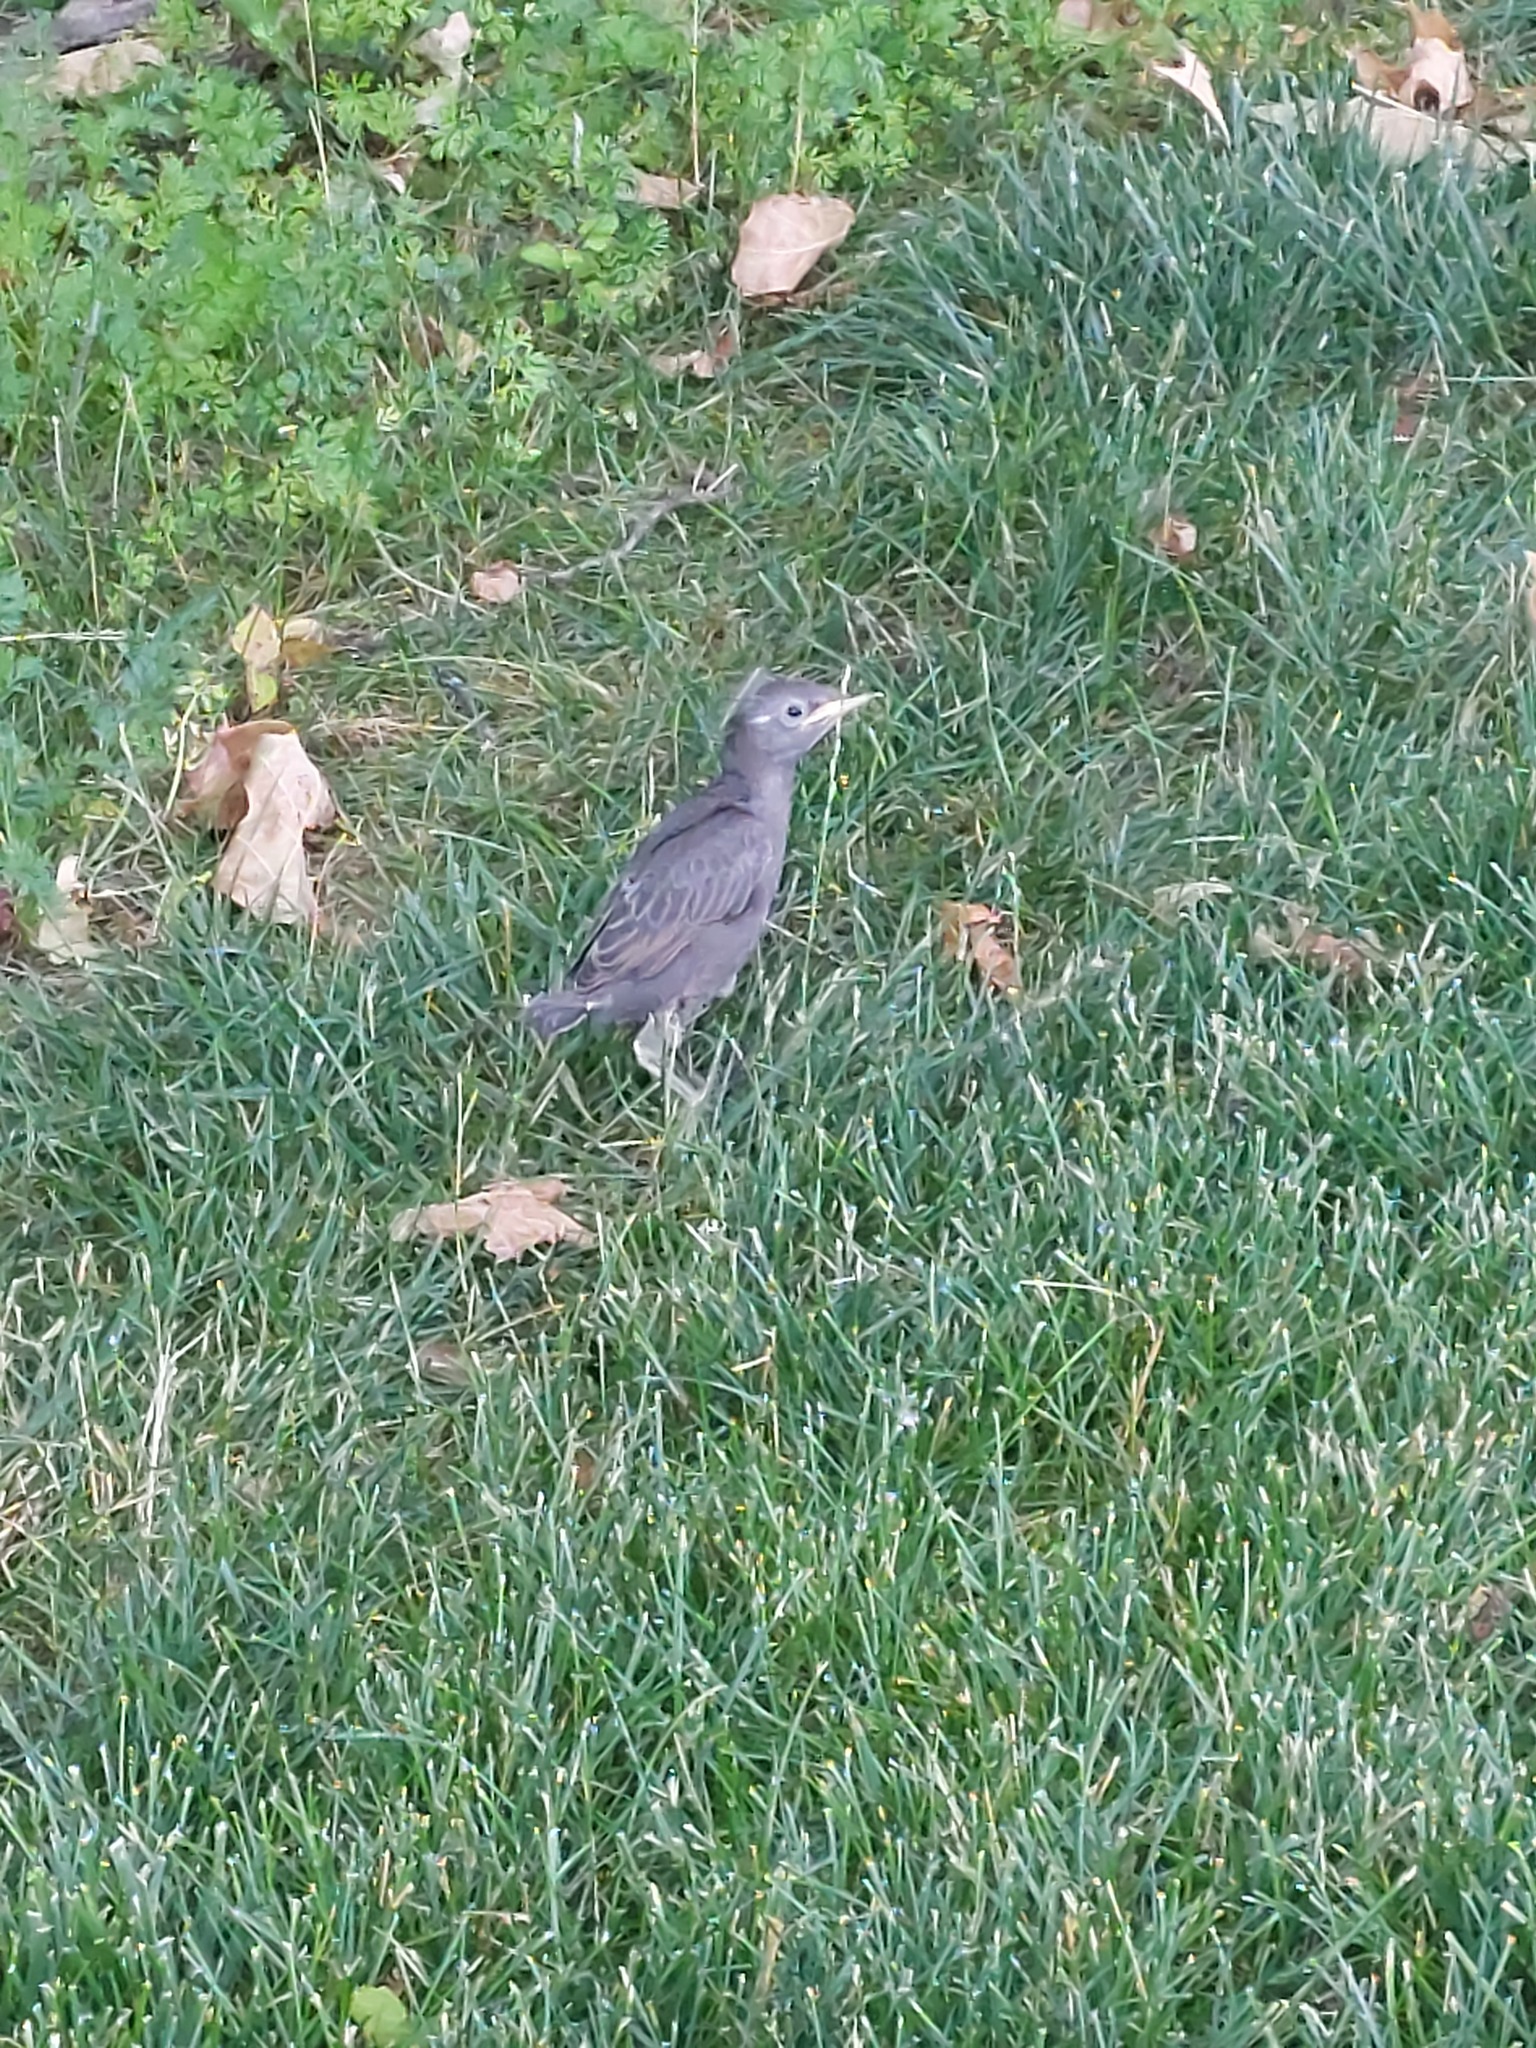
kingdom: Animalia
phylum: Chordata
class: Aves
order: Passeriformes
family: Sturnidae
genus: Sturnus
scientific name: Sturnus vulgaris
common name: Common starling
